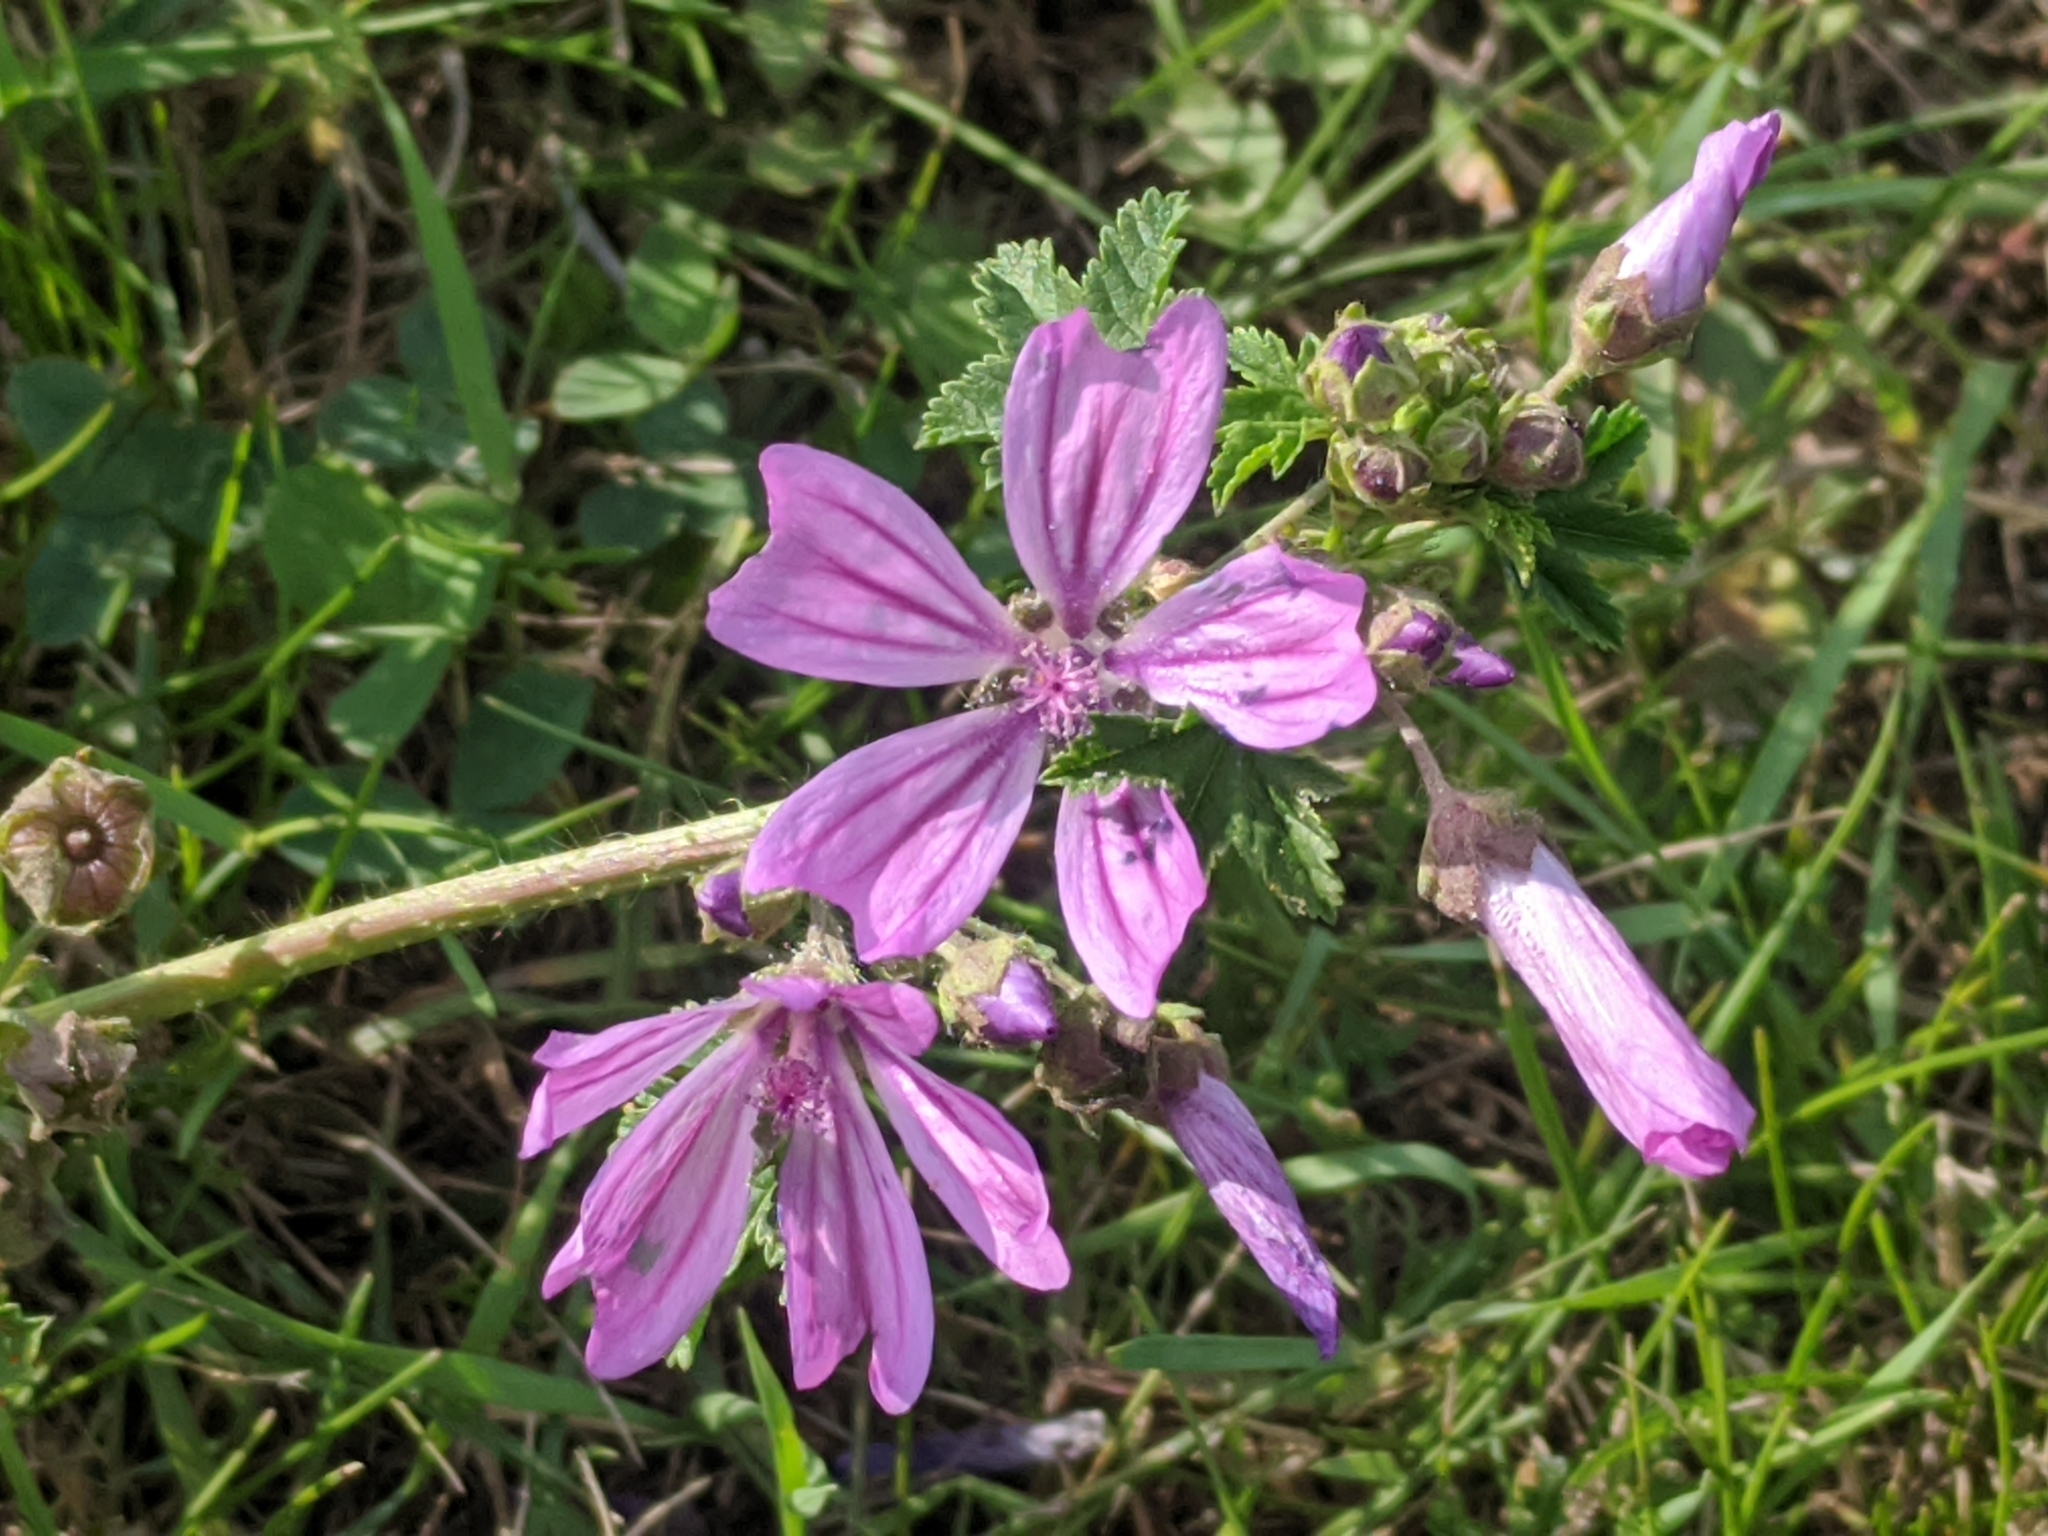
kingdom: Plantae
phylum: Tracheophyta
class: Magnoliopsida
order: Malvales
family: Malvaceae
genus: Malva
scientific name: Malva sylvestris
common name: Common mallow
